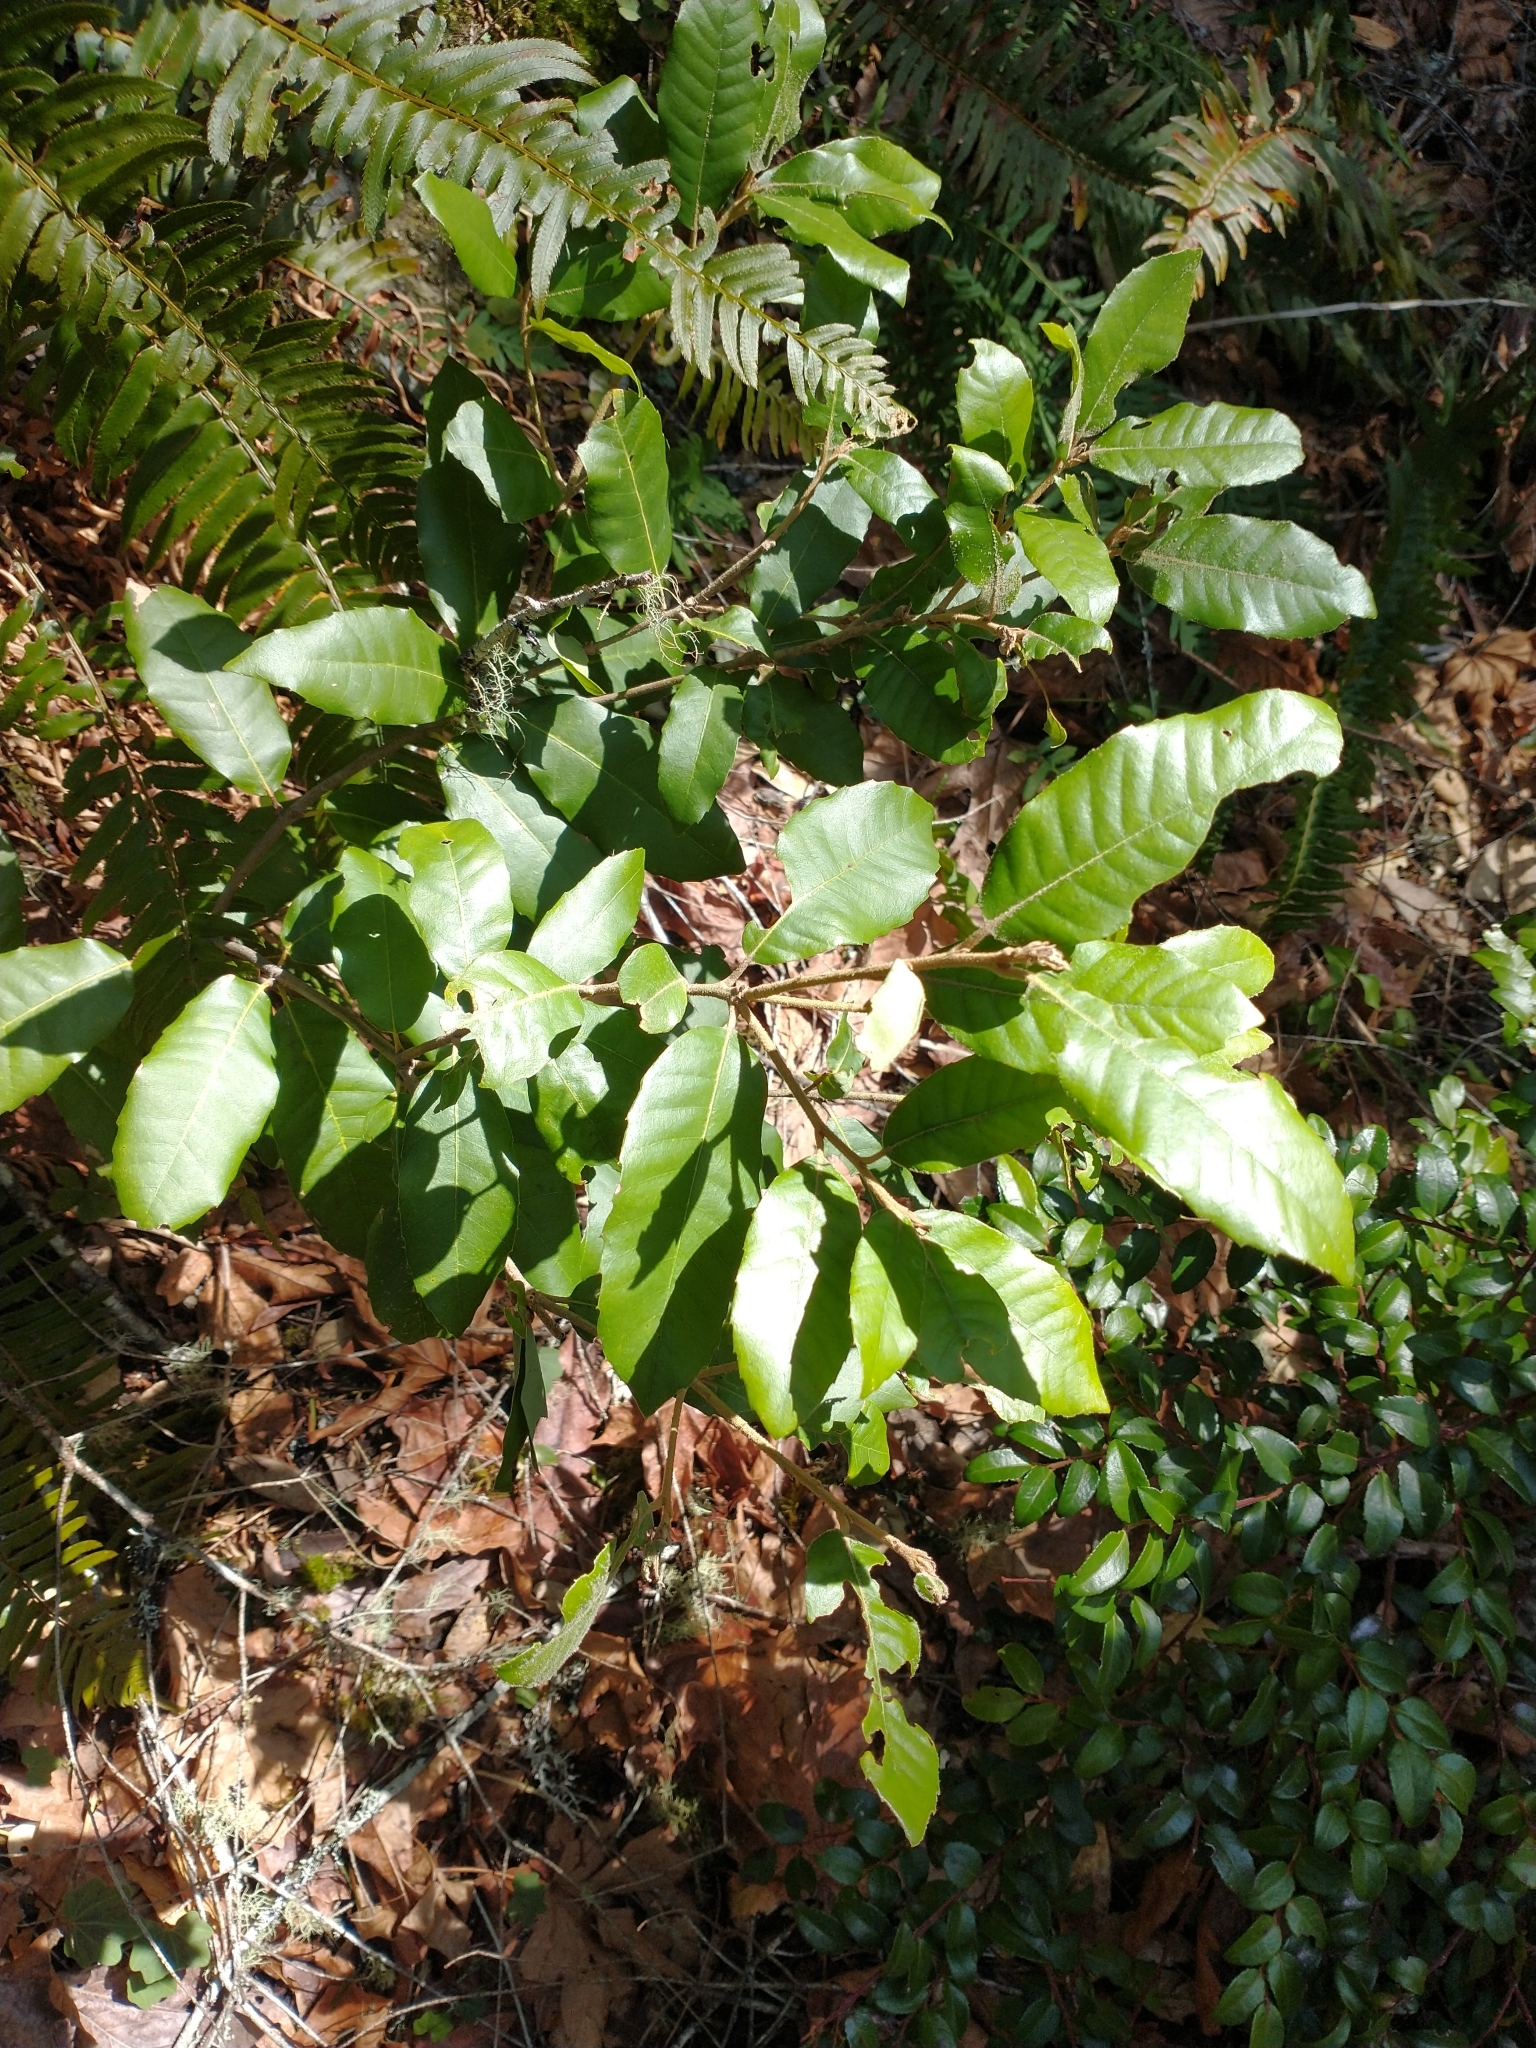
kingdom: Plantae
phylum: Tracheophyta
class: Magnoliopsida
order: Fagales
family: Fagaceae
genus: Notholithocarpus
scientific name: Notholithocarpus densiflorus
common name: Tan bark oak
